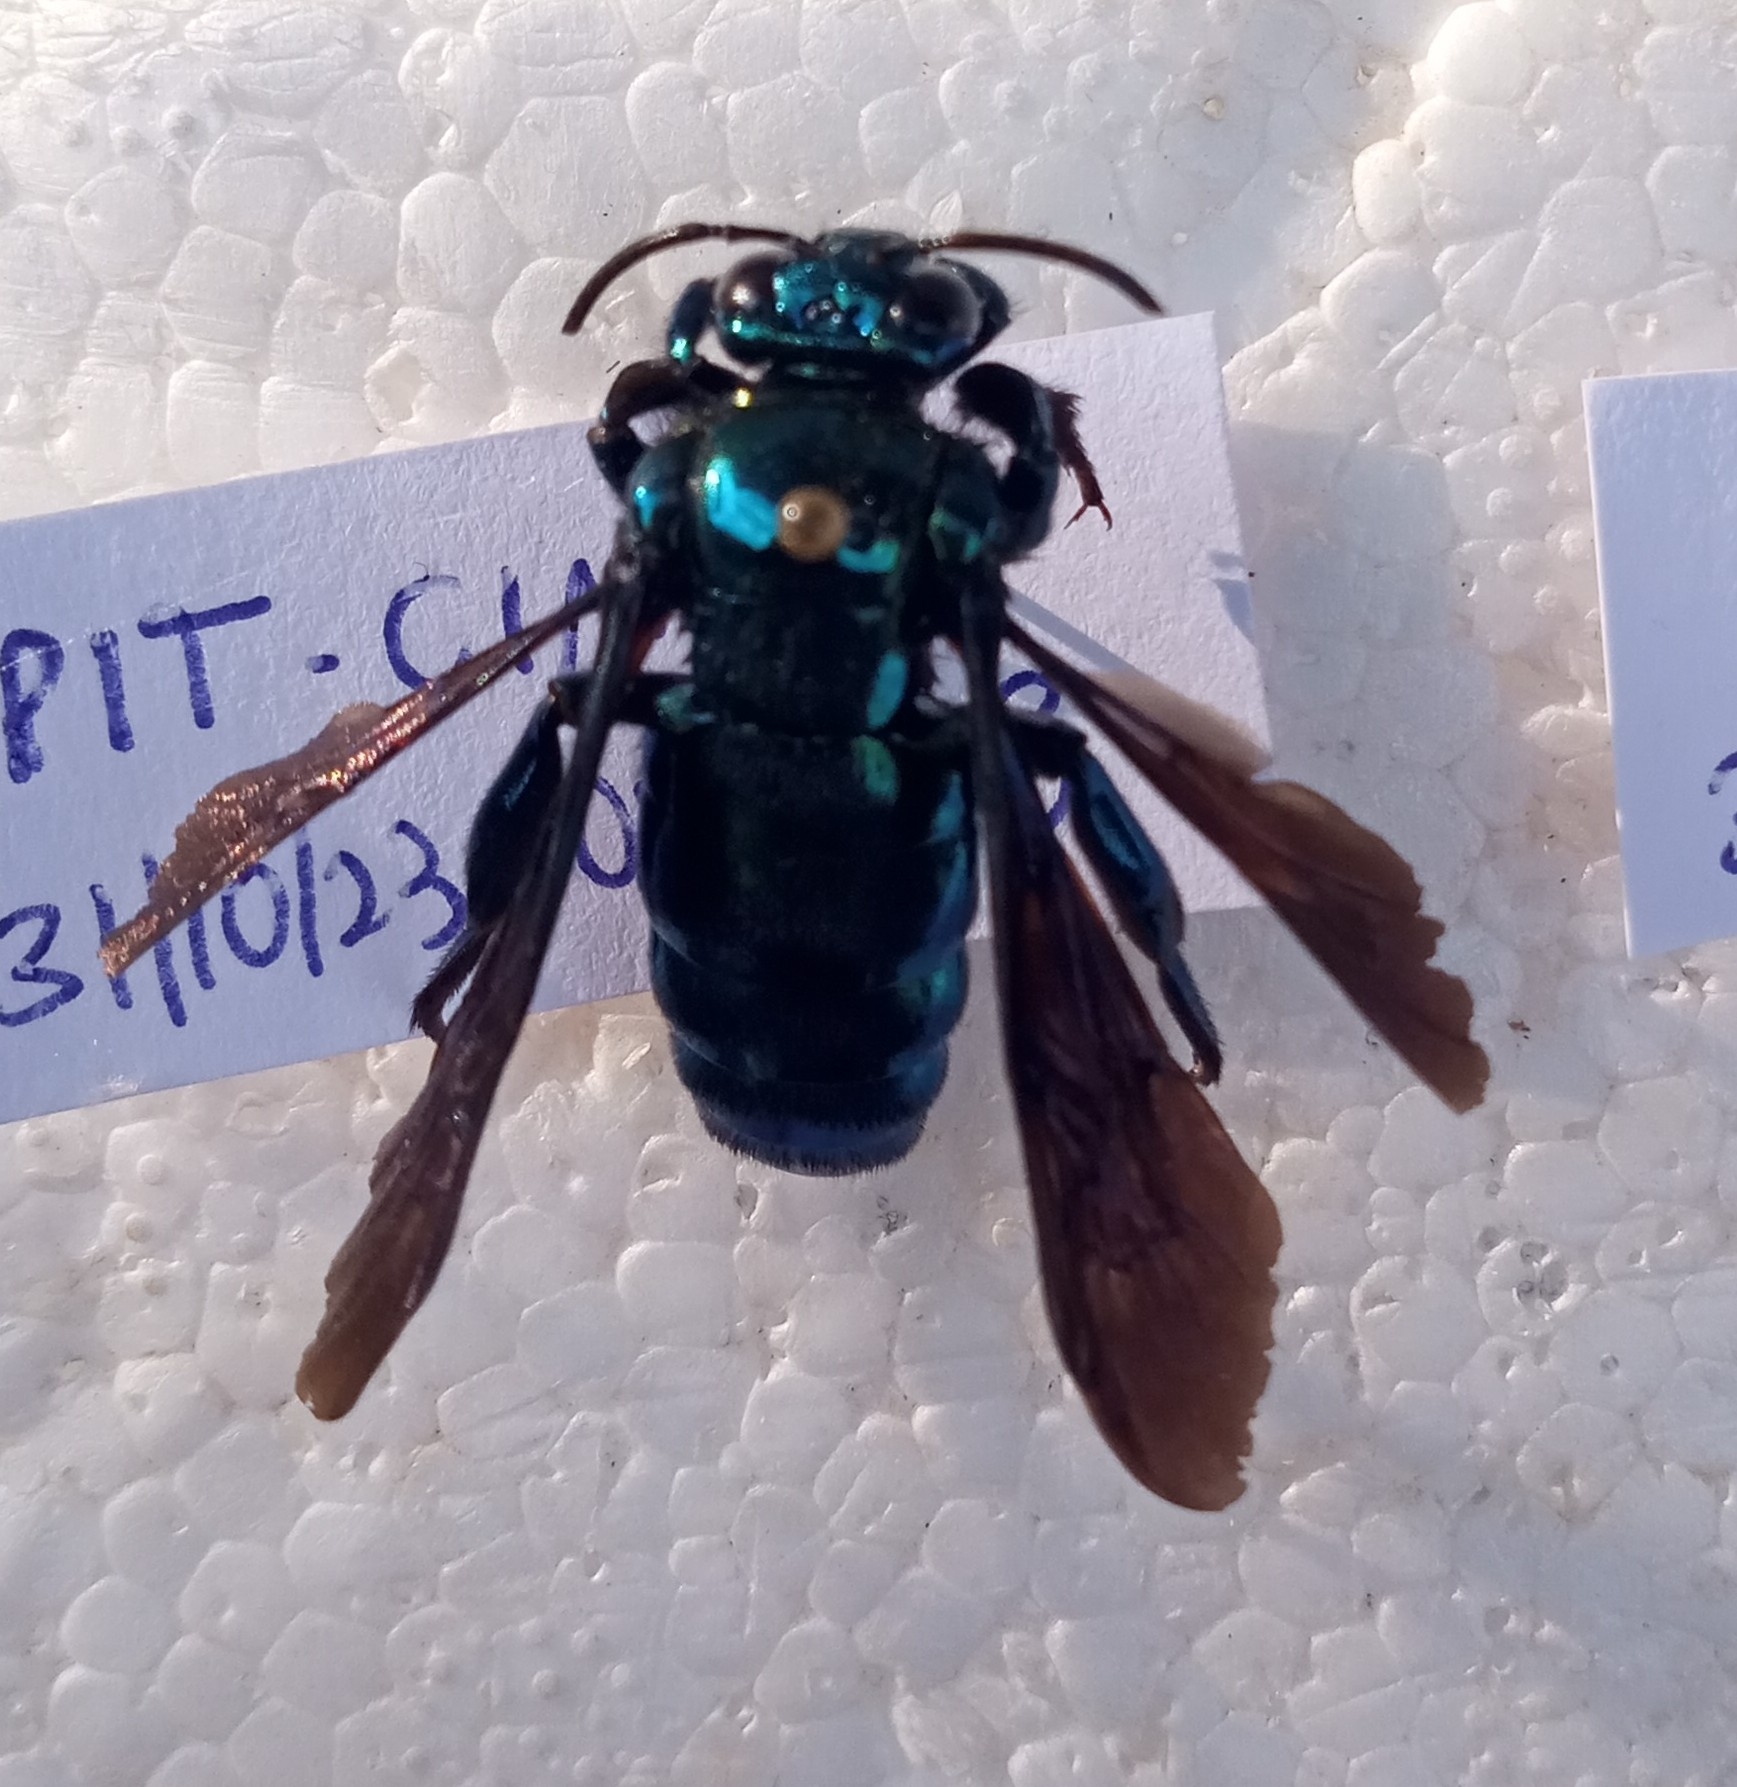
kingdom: Animalia
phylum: Arthropoda
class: Insecta
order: Hymenoptera
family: Apidae
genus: Aglae
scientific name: Aglae caerulea
